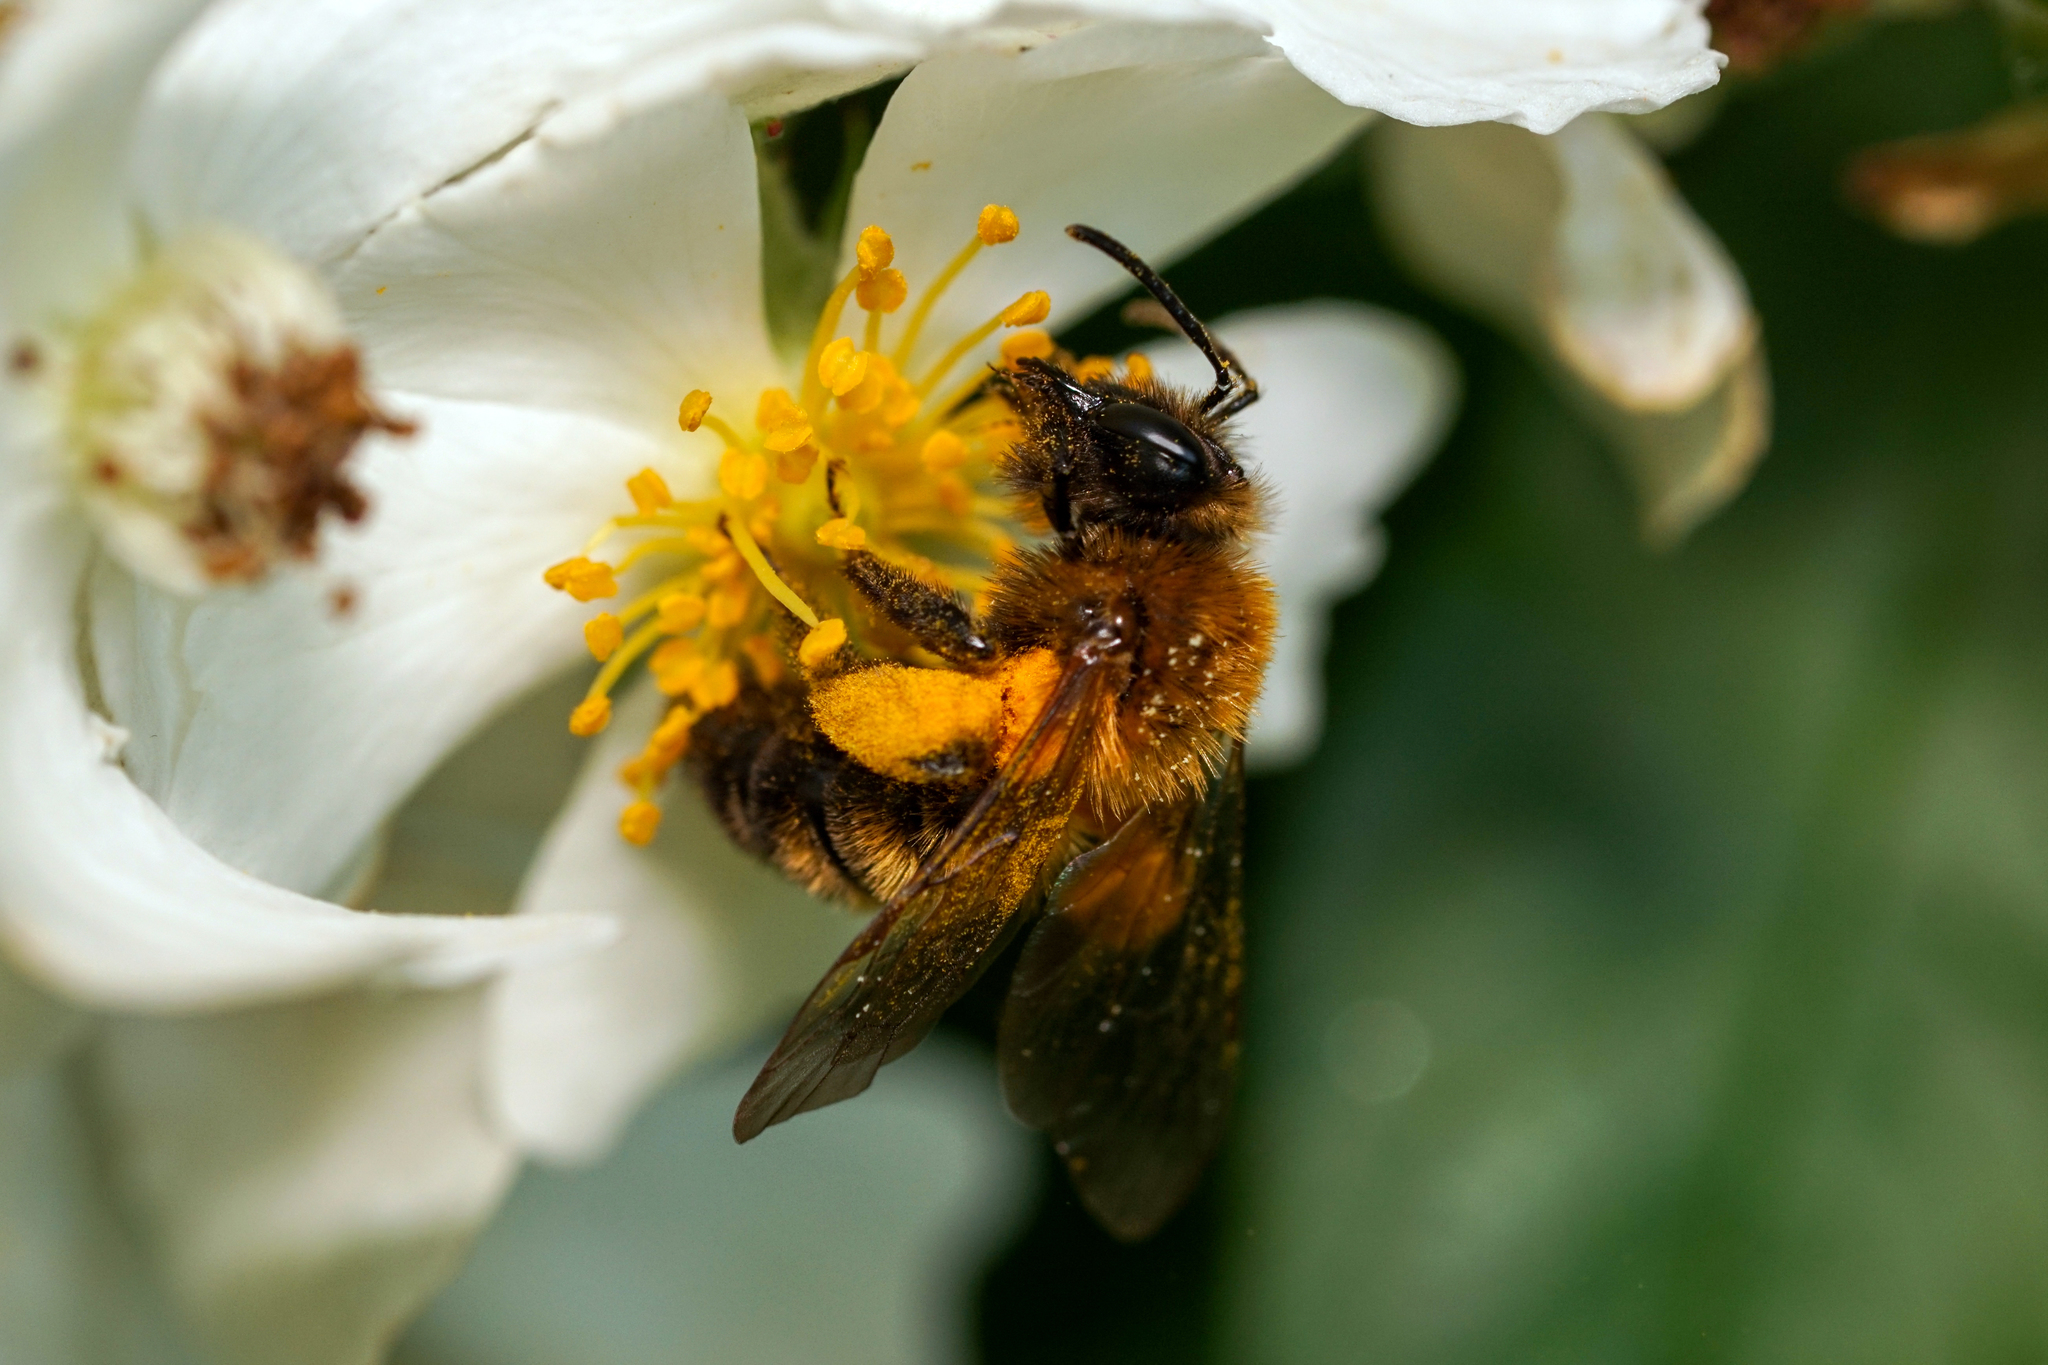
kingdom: Animalia
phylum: Arthropoda
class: Insecta
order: Hymenoptera
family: Andrenidae
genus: Andrena
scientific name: Andrena milwaukeensis
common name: Milwaukee mining bee
